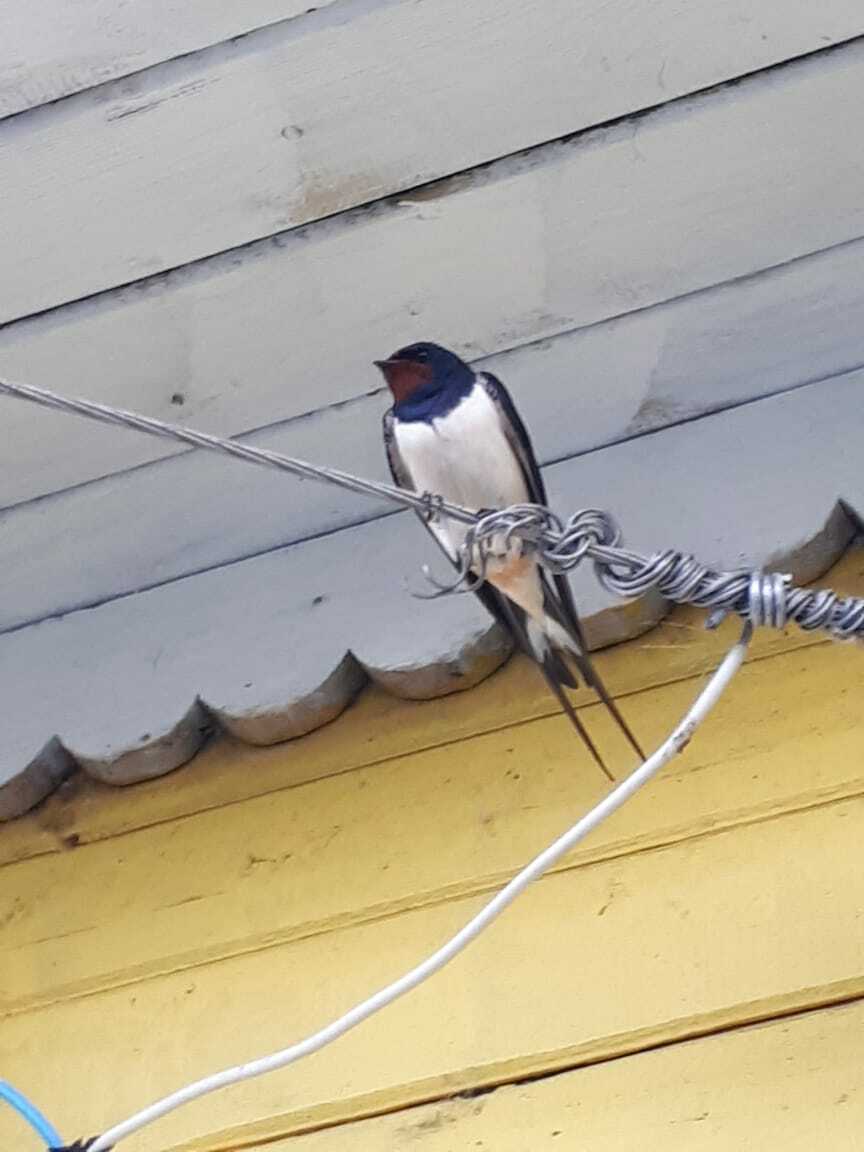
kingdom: Animalia
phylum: Chordata
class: Aves
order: Passeriformes
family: Hirundinidae
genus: Hirundo
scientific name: Hirundo rustica
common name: Barn swallow
